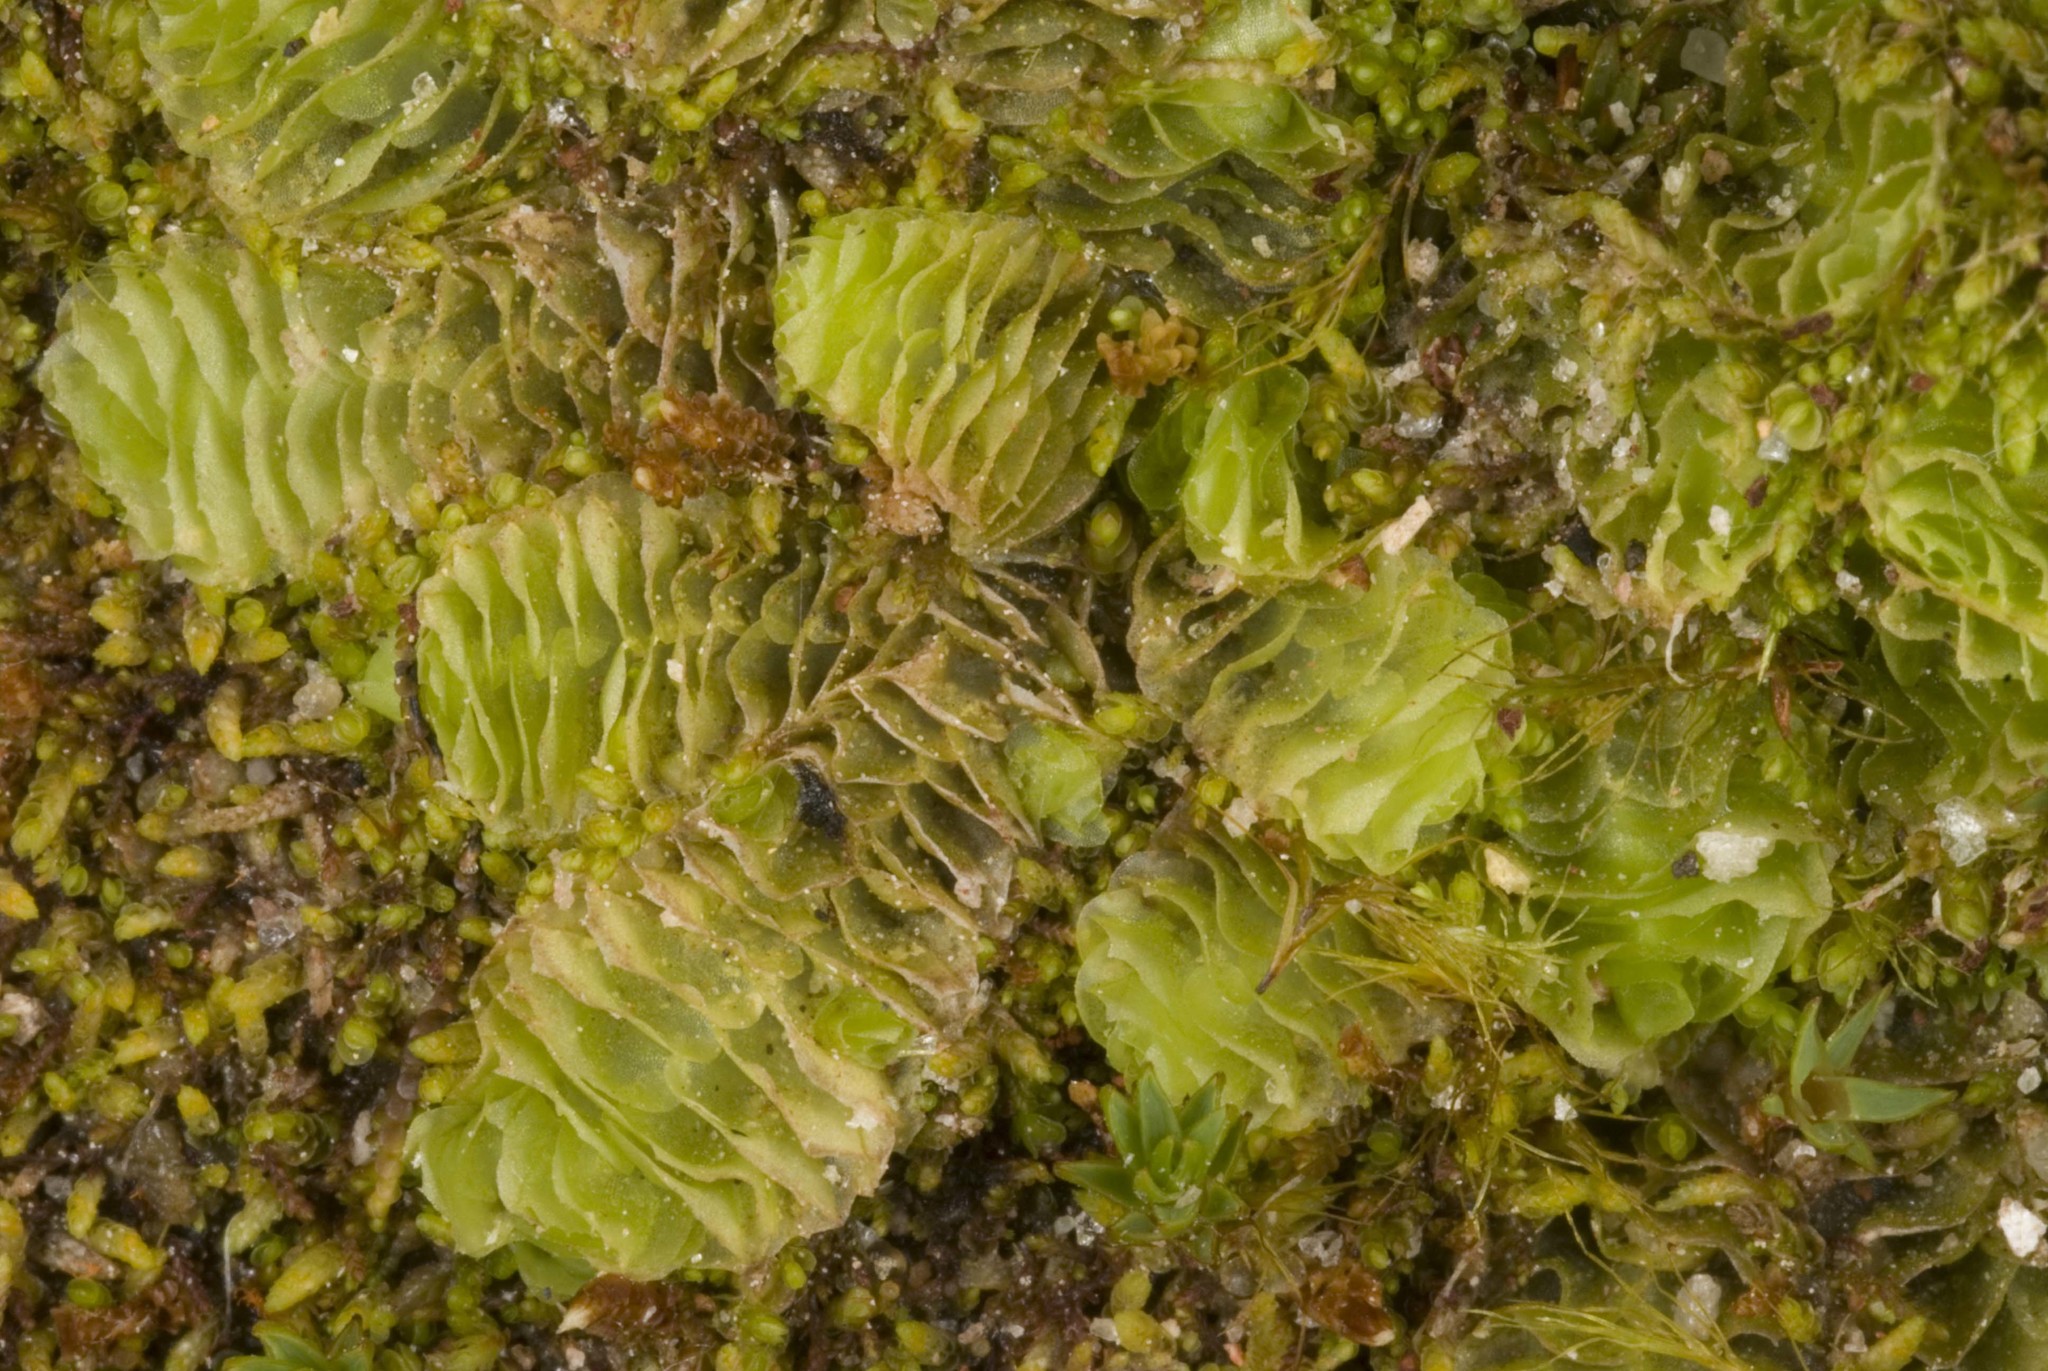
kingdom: Plantae
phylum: Marchantiophyta
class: Jungermanniopsida
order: Jungermanniales
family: Schistochilaceae
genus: Schistochila
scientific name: Schistochila subhyalina
